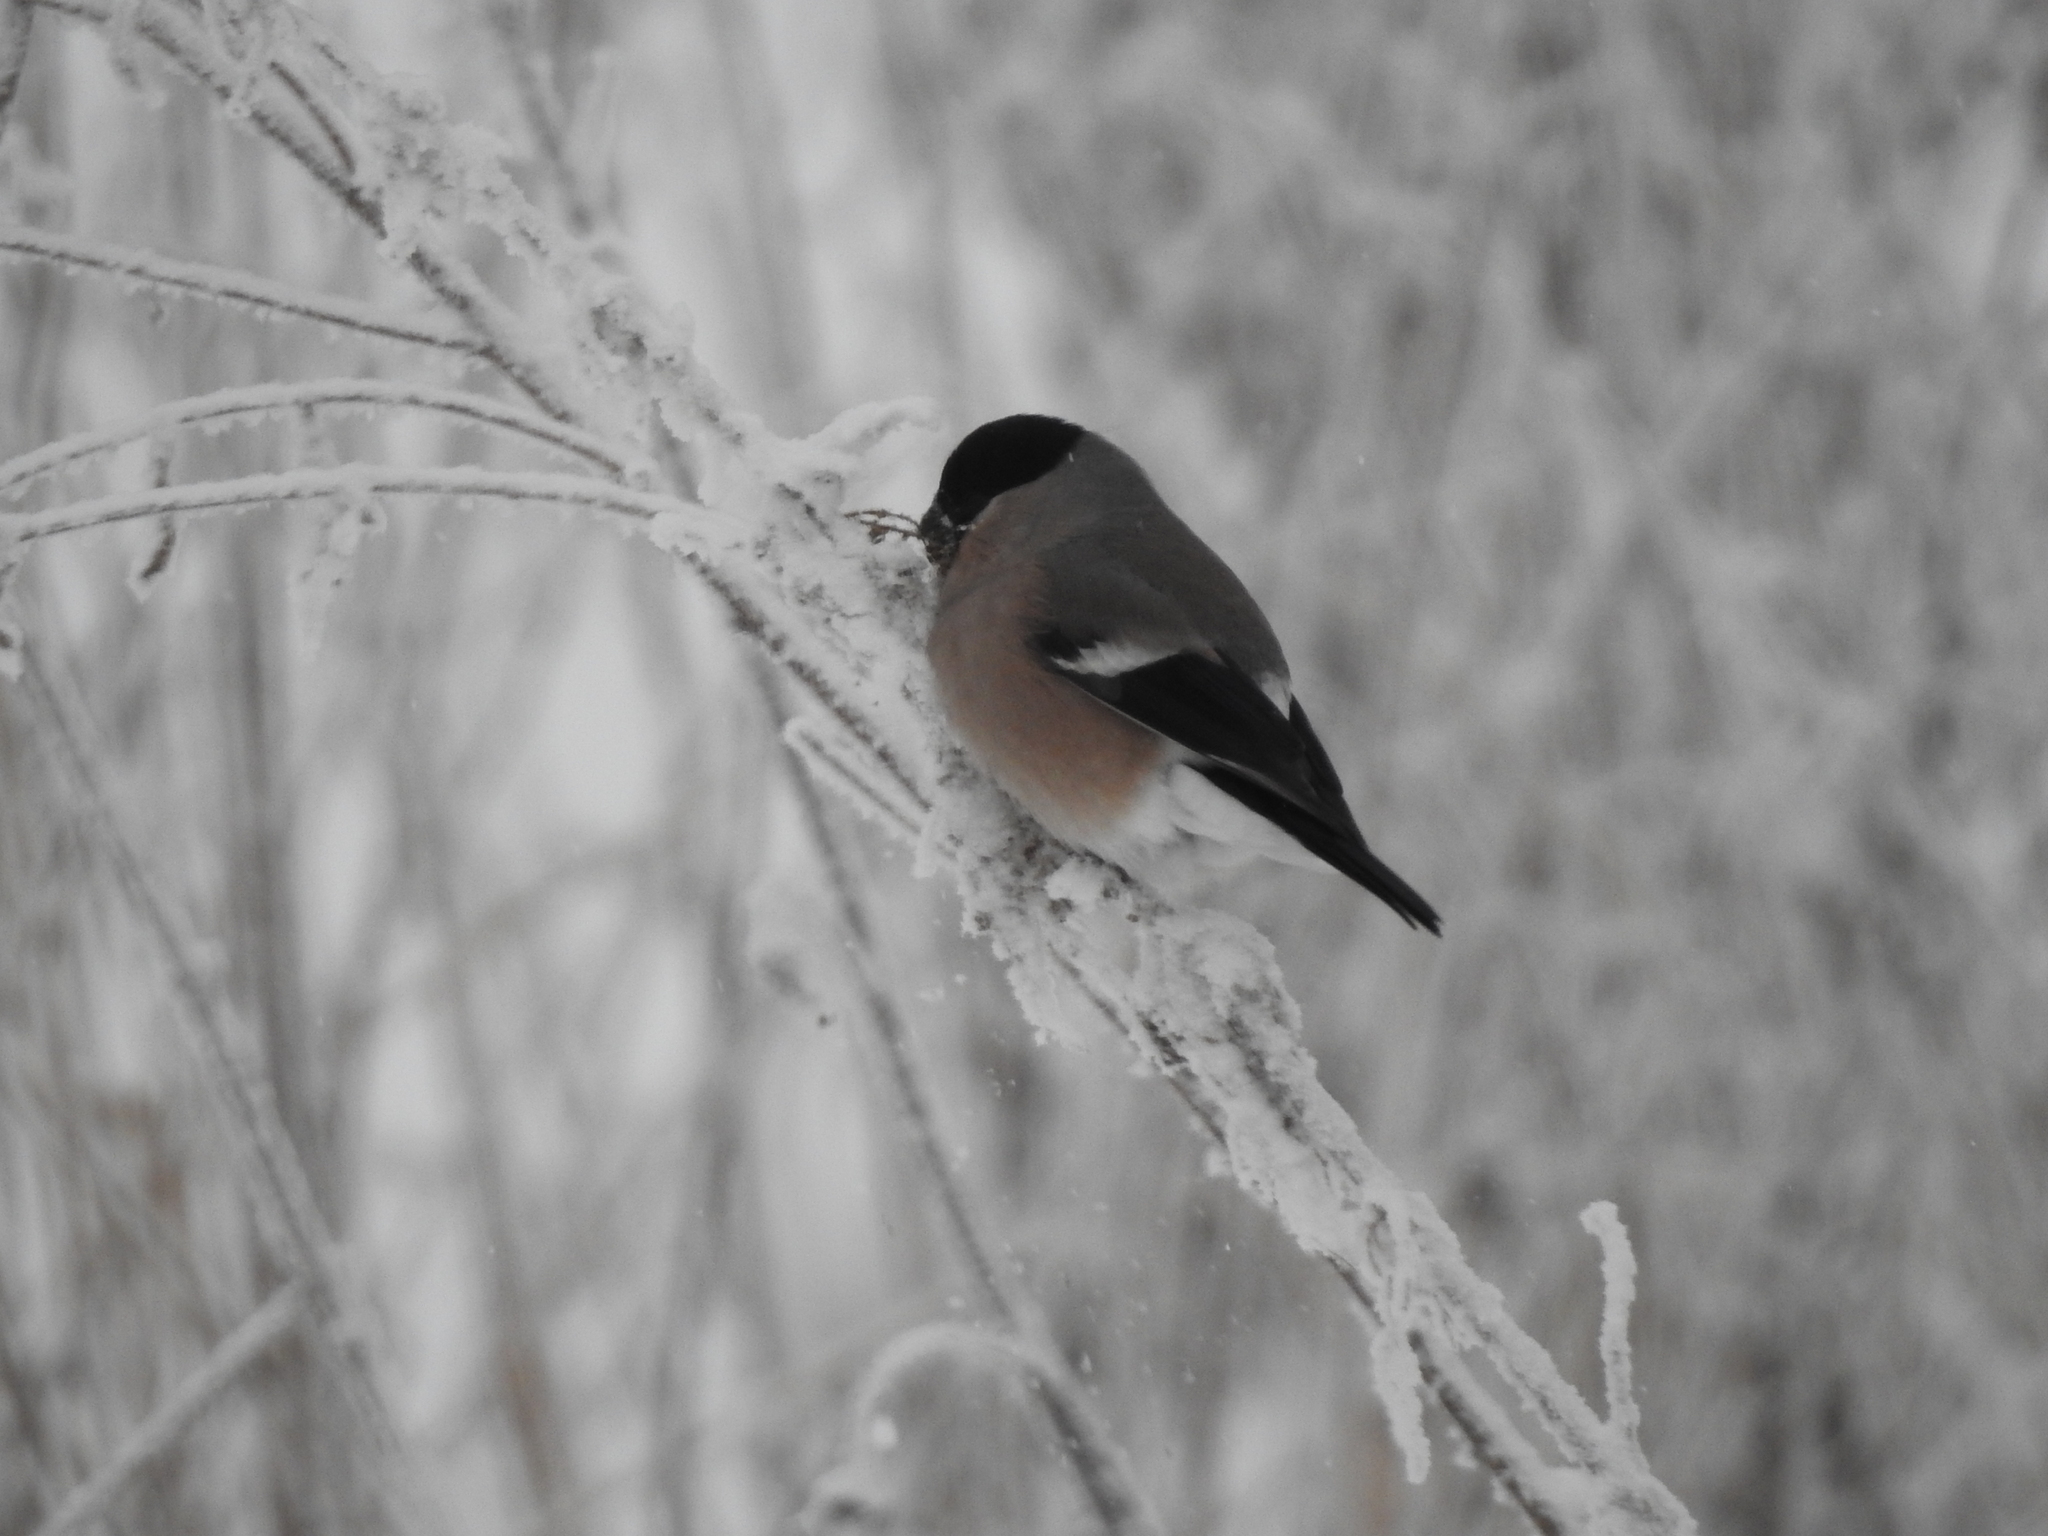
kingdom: Animalia
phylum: Chordata
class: Aves
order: Passeriformes
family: Fringillidae
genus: Pyrrhula
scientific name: Pyrrhula pyrrhula
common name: Eurasian bullfinch
